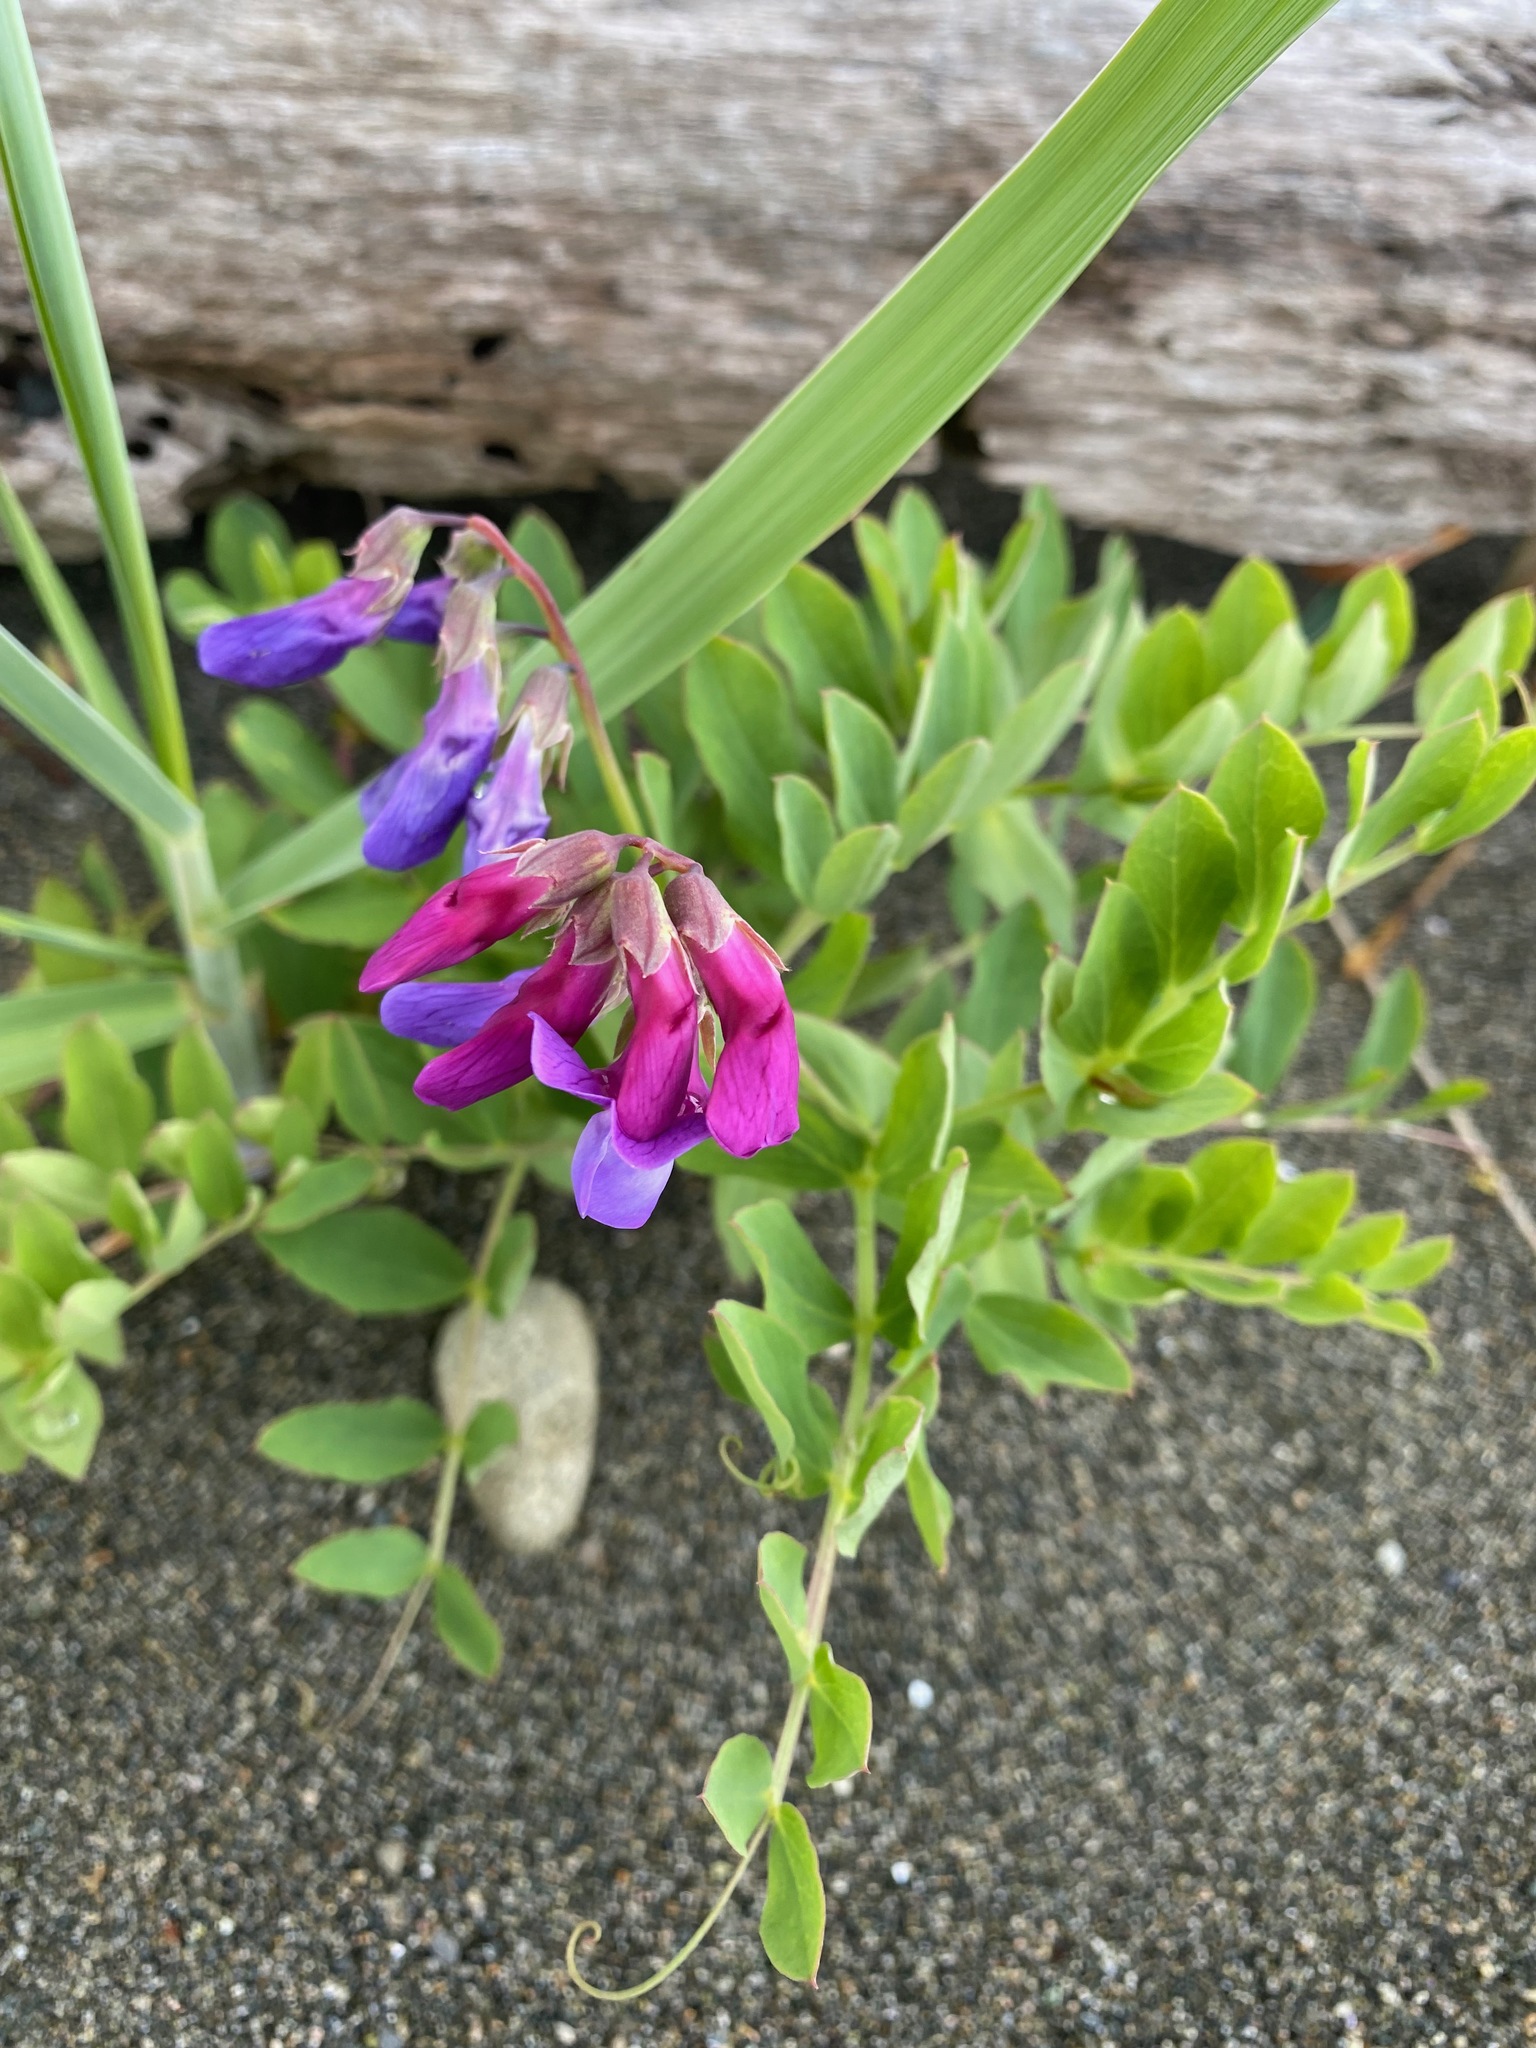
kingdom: Plantae
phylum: Tracheophyta
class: Magnoliopsida
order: Fabales
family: Fabaceae
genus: Lathyrus
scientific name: Lathyrus japonicus
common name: Sea pea
